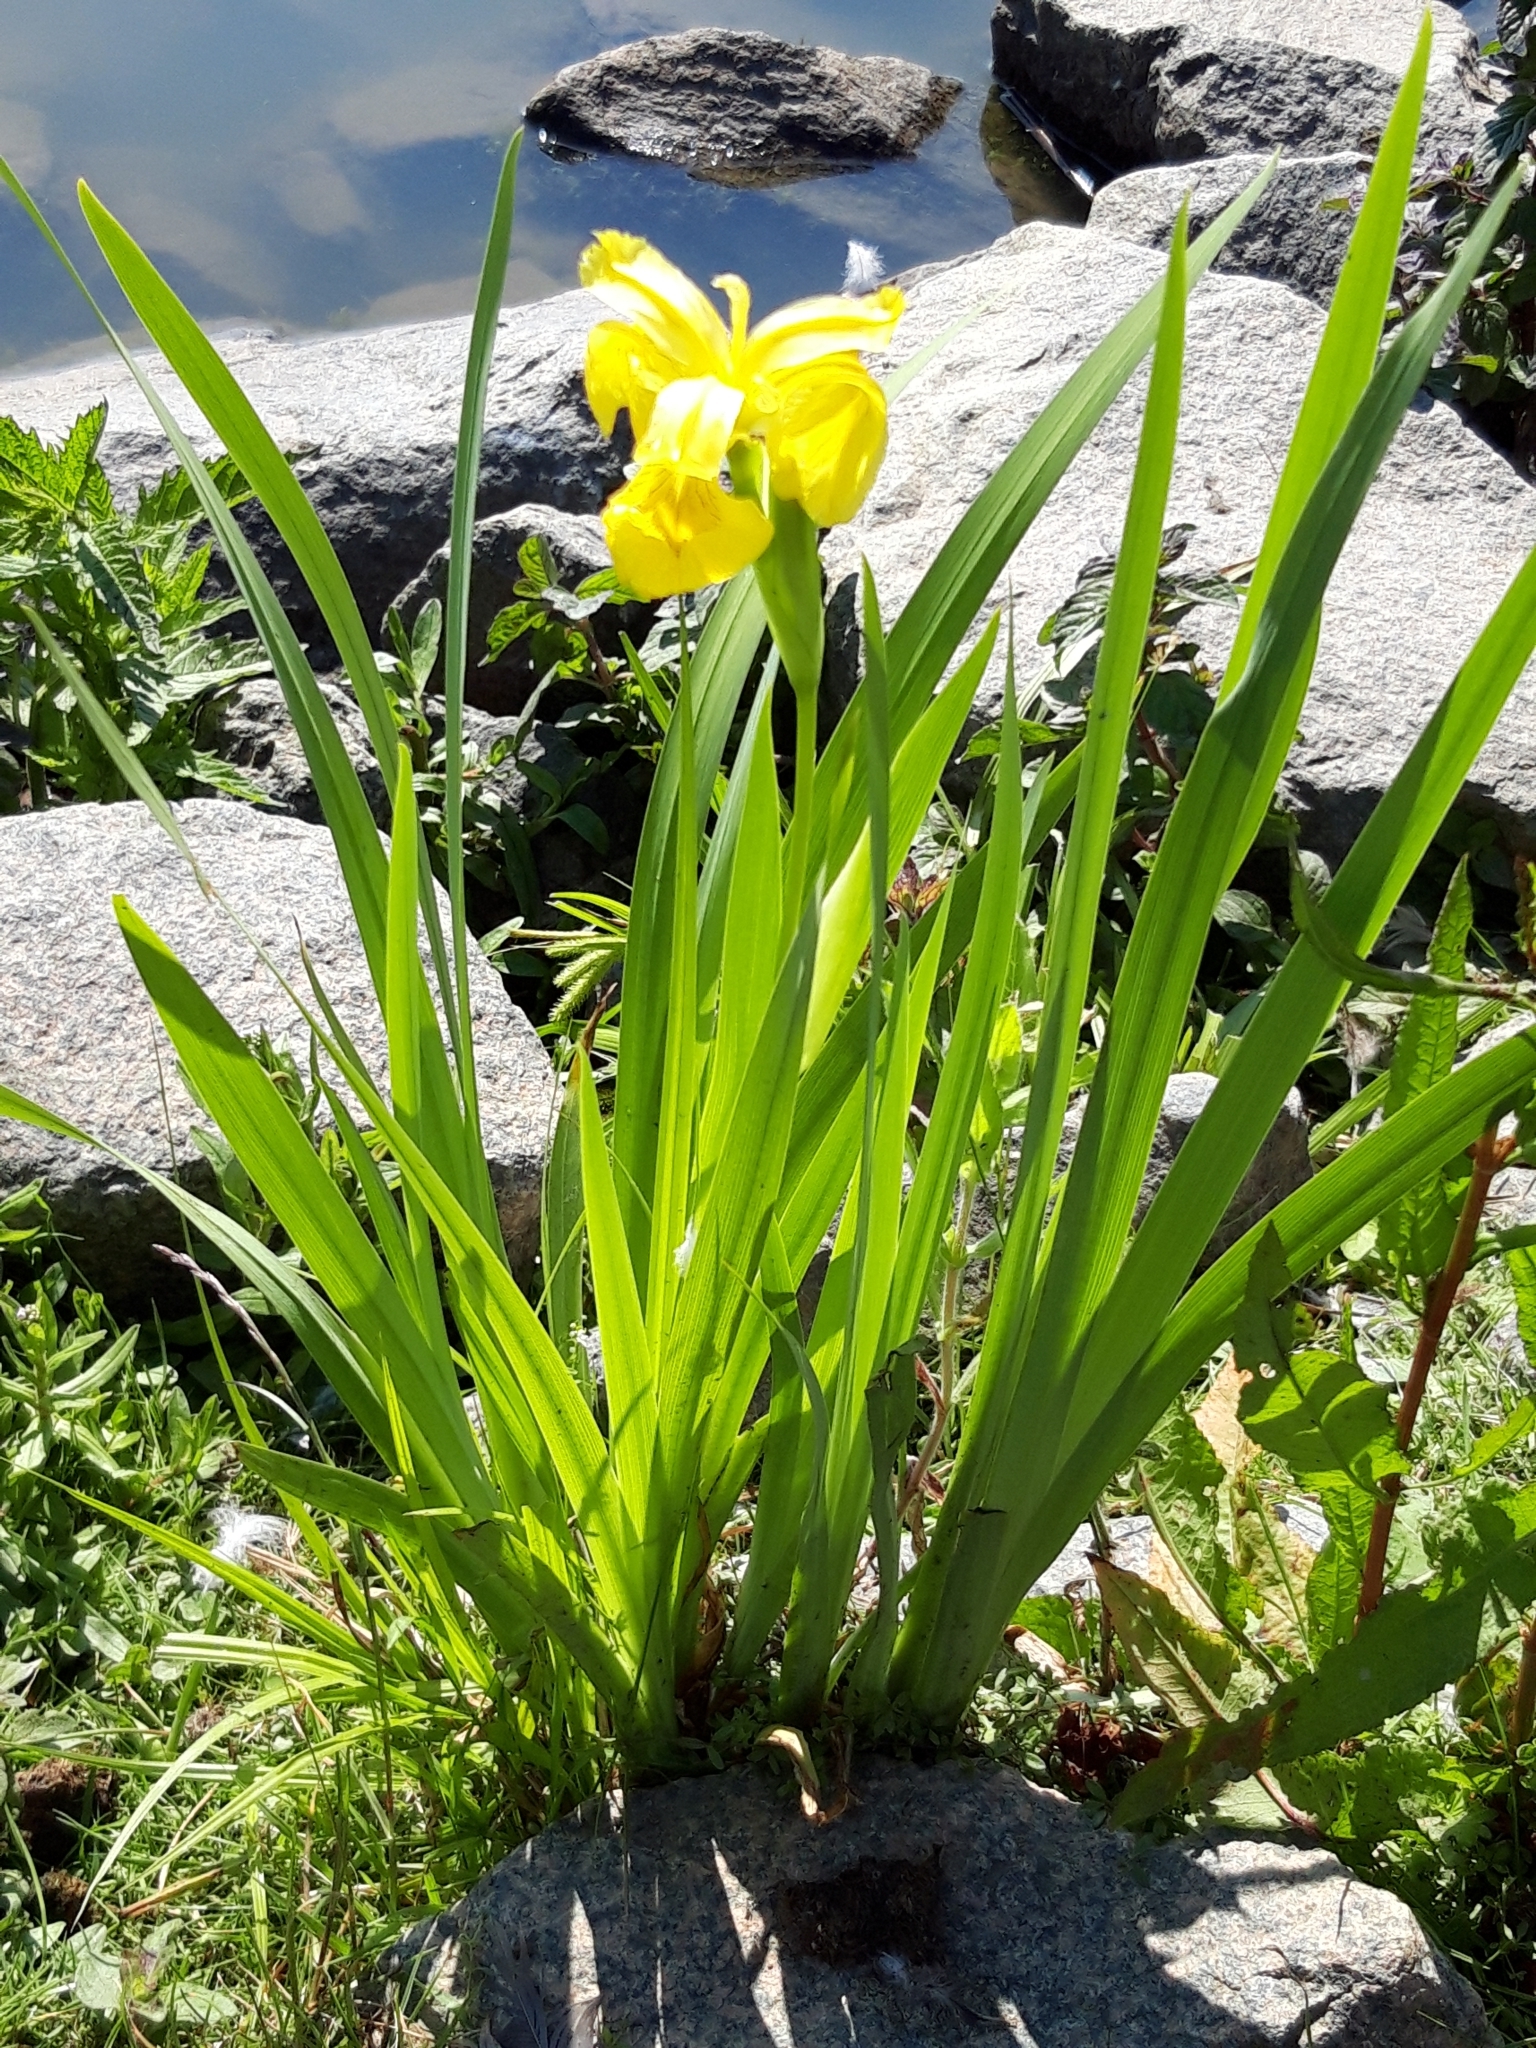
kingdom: Plantae
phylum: Tracheophyta
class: Liliopsida
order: Asparagales
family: Iridaceae
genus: Iris
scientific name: Iris pseudacorus
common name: Yellow flag
